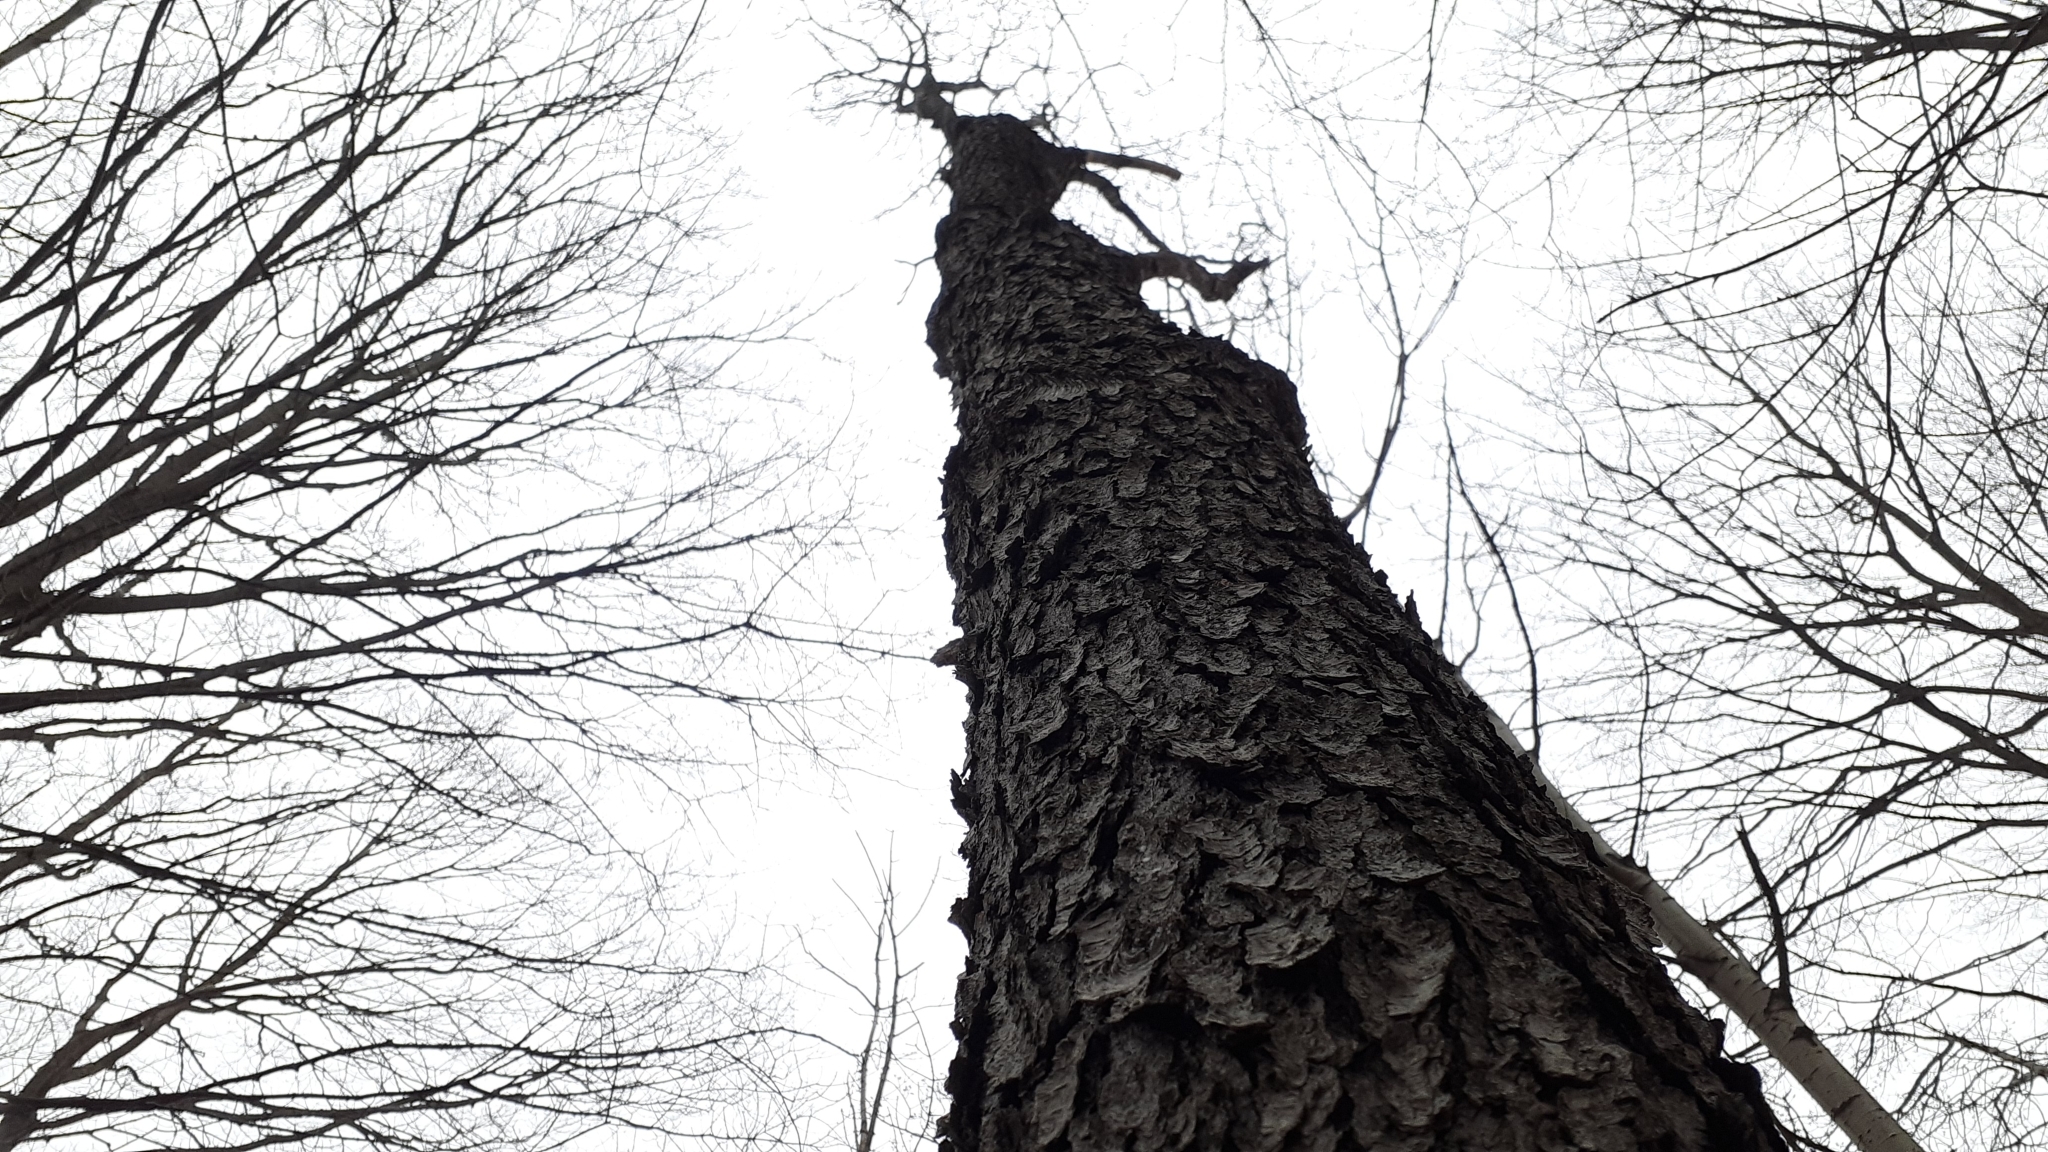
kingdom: Plantae
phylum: Tracheophyta
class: Magnoliopsida
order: Rosales
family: Rosaceae
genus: Prunus
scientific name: Prunus serotina
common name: Black cherry
